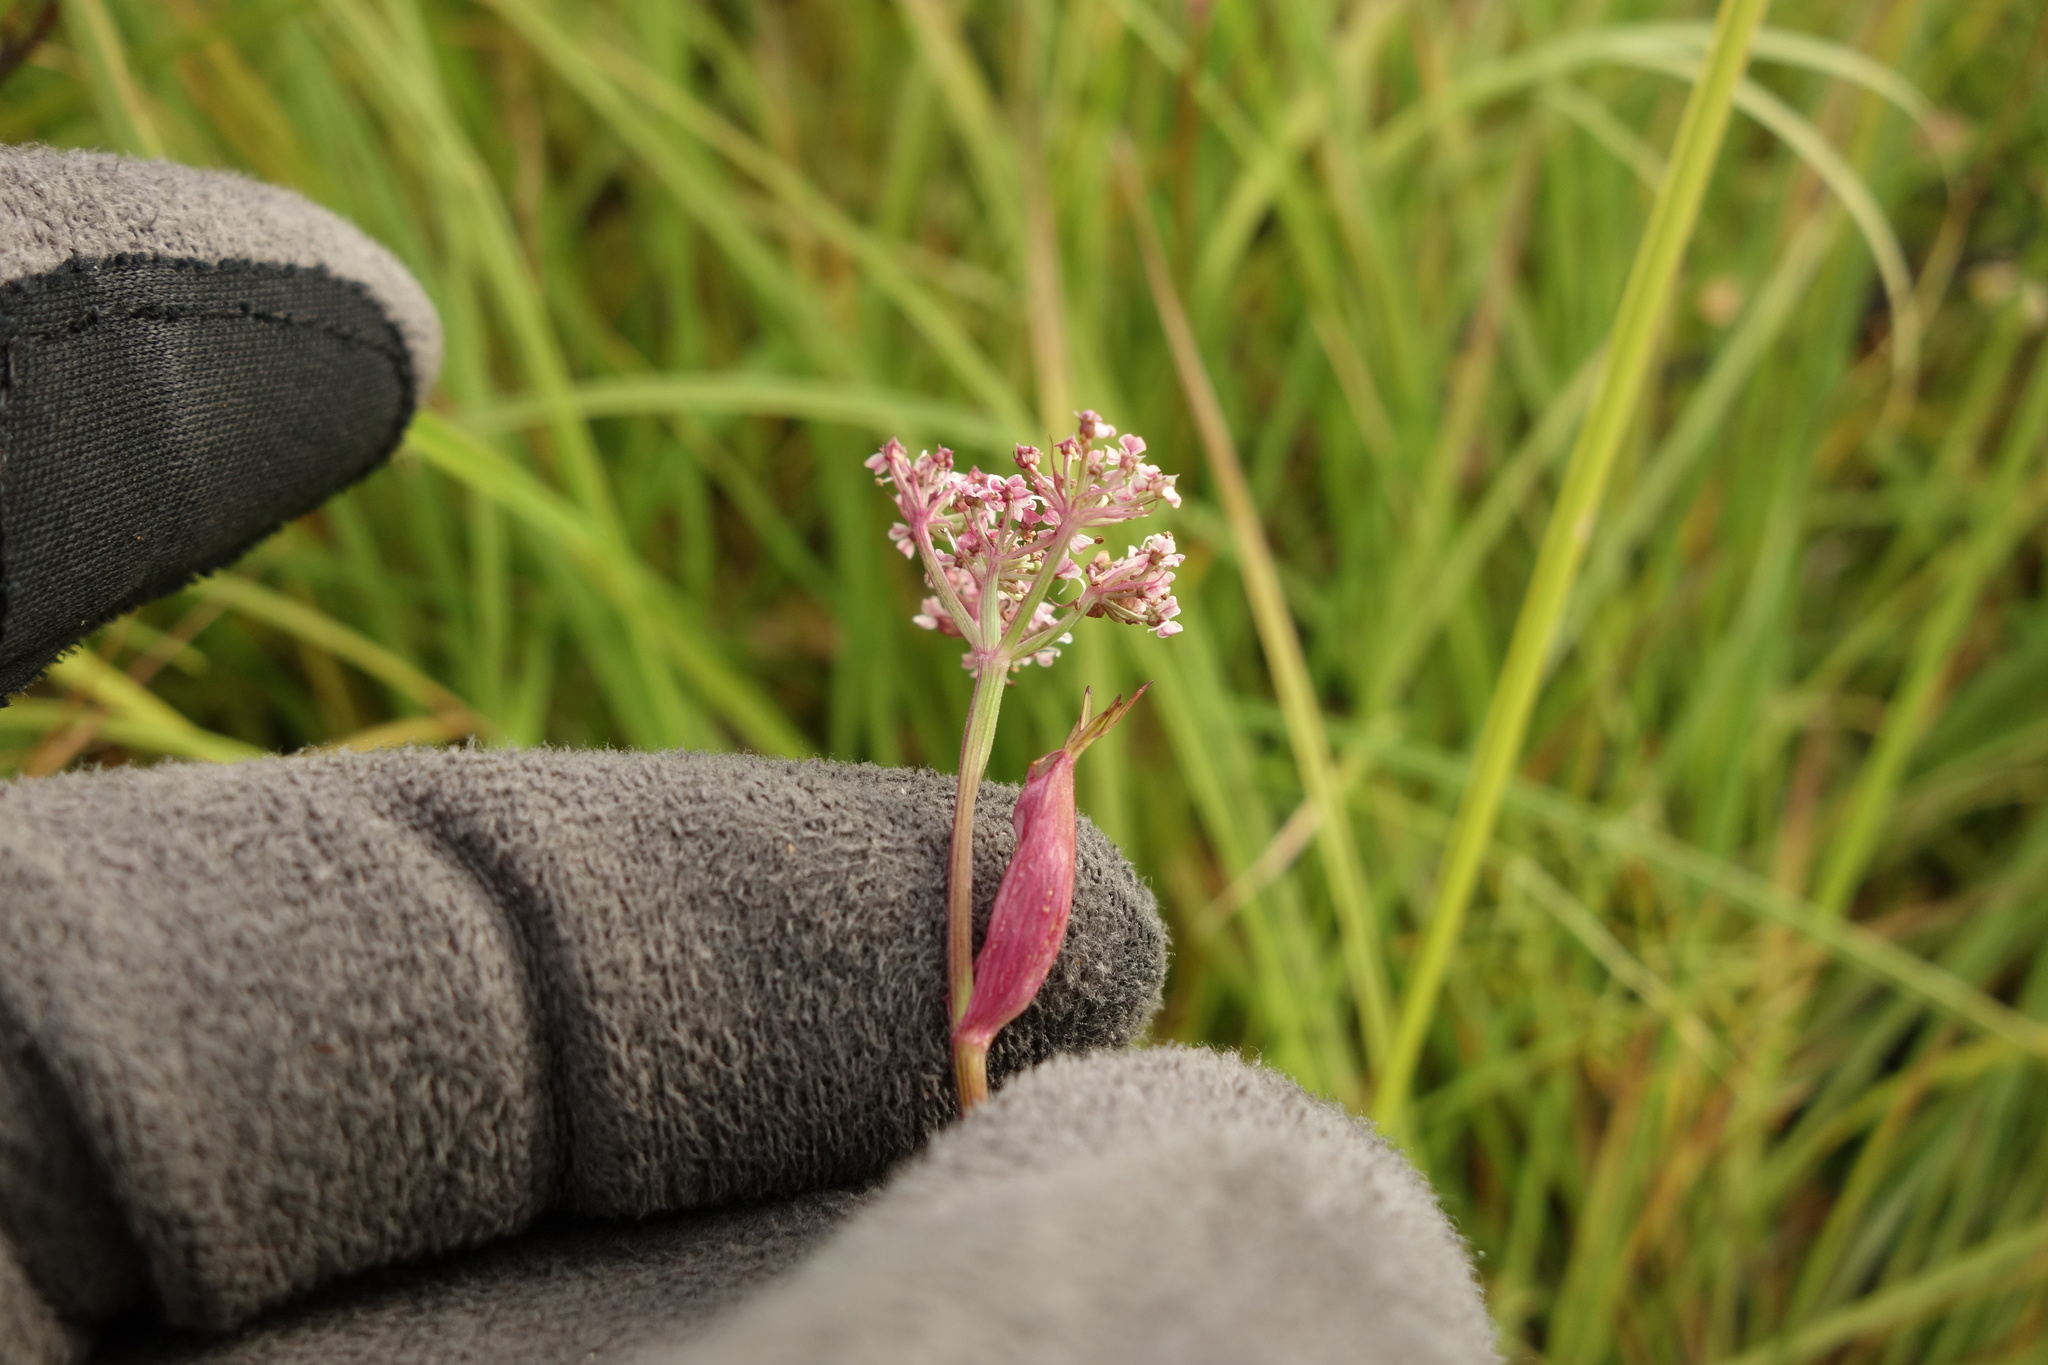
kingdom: Plantae
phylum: Tracheophyta
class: Magnoliopsida
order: Apiales
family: Apiaceae
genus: Ostericum
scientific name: Ostericum tenuifolium
